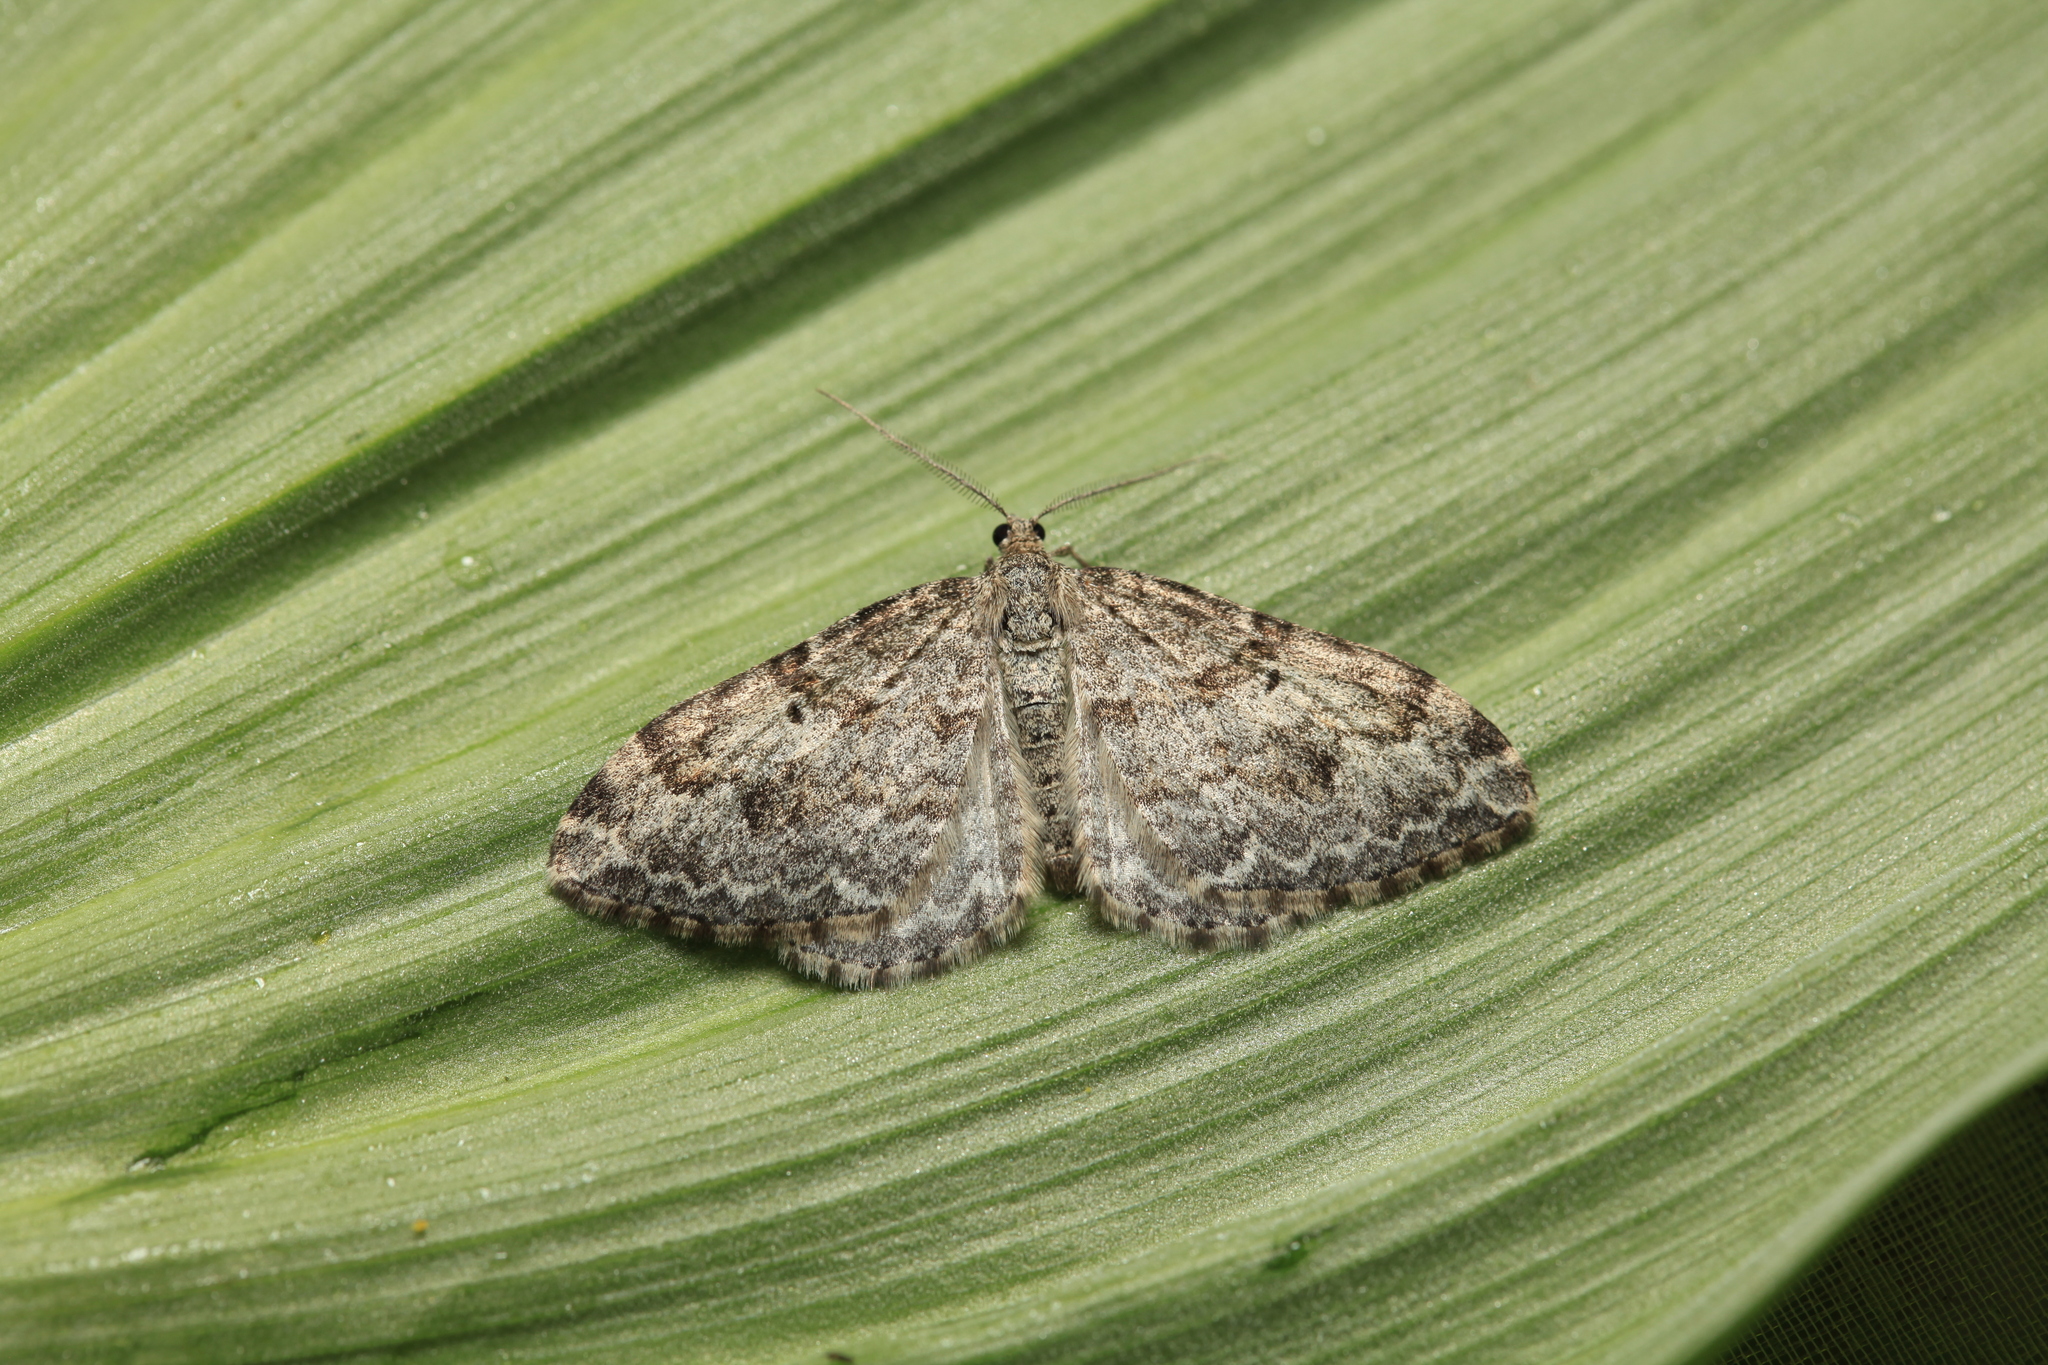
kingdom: Animalia
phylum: Arthropoda
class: Insecta
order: Lepidoptera
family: Geometridae
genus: Xanthorhoe
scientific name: Xanthorhoe sajanaria
